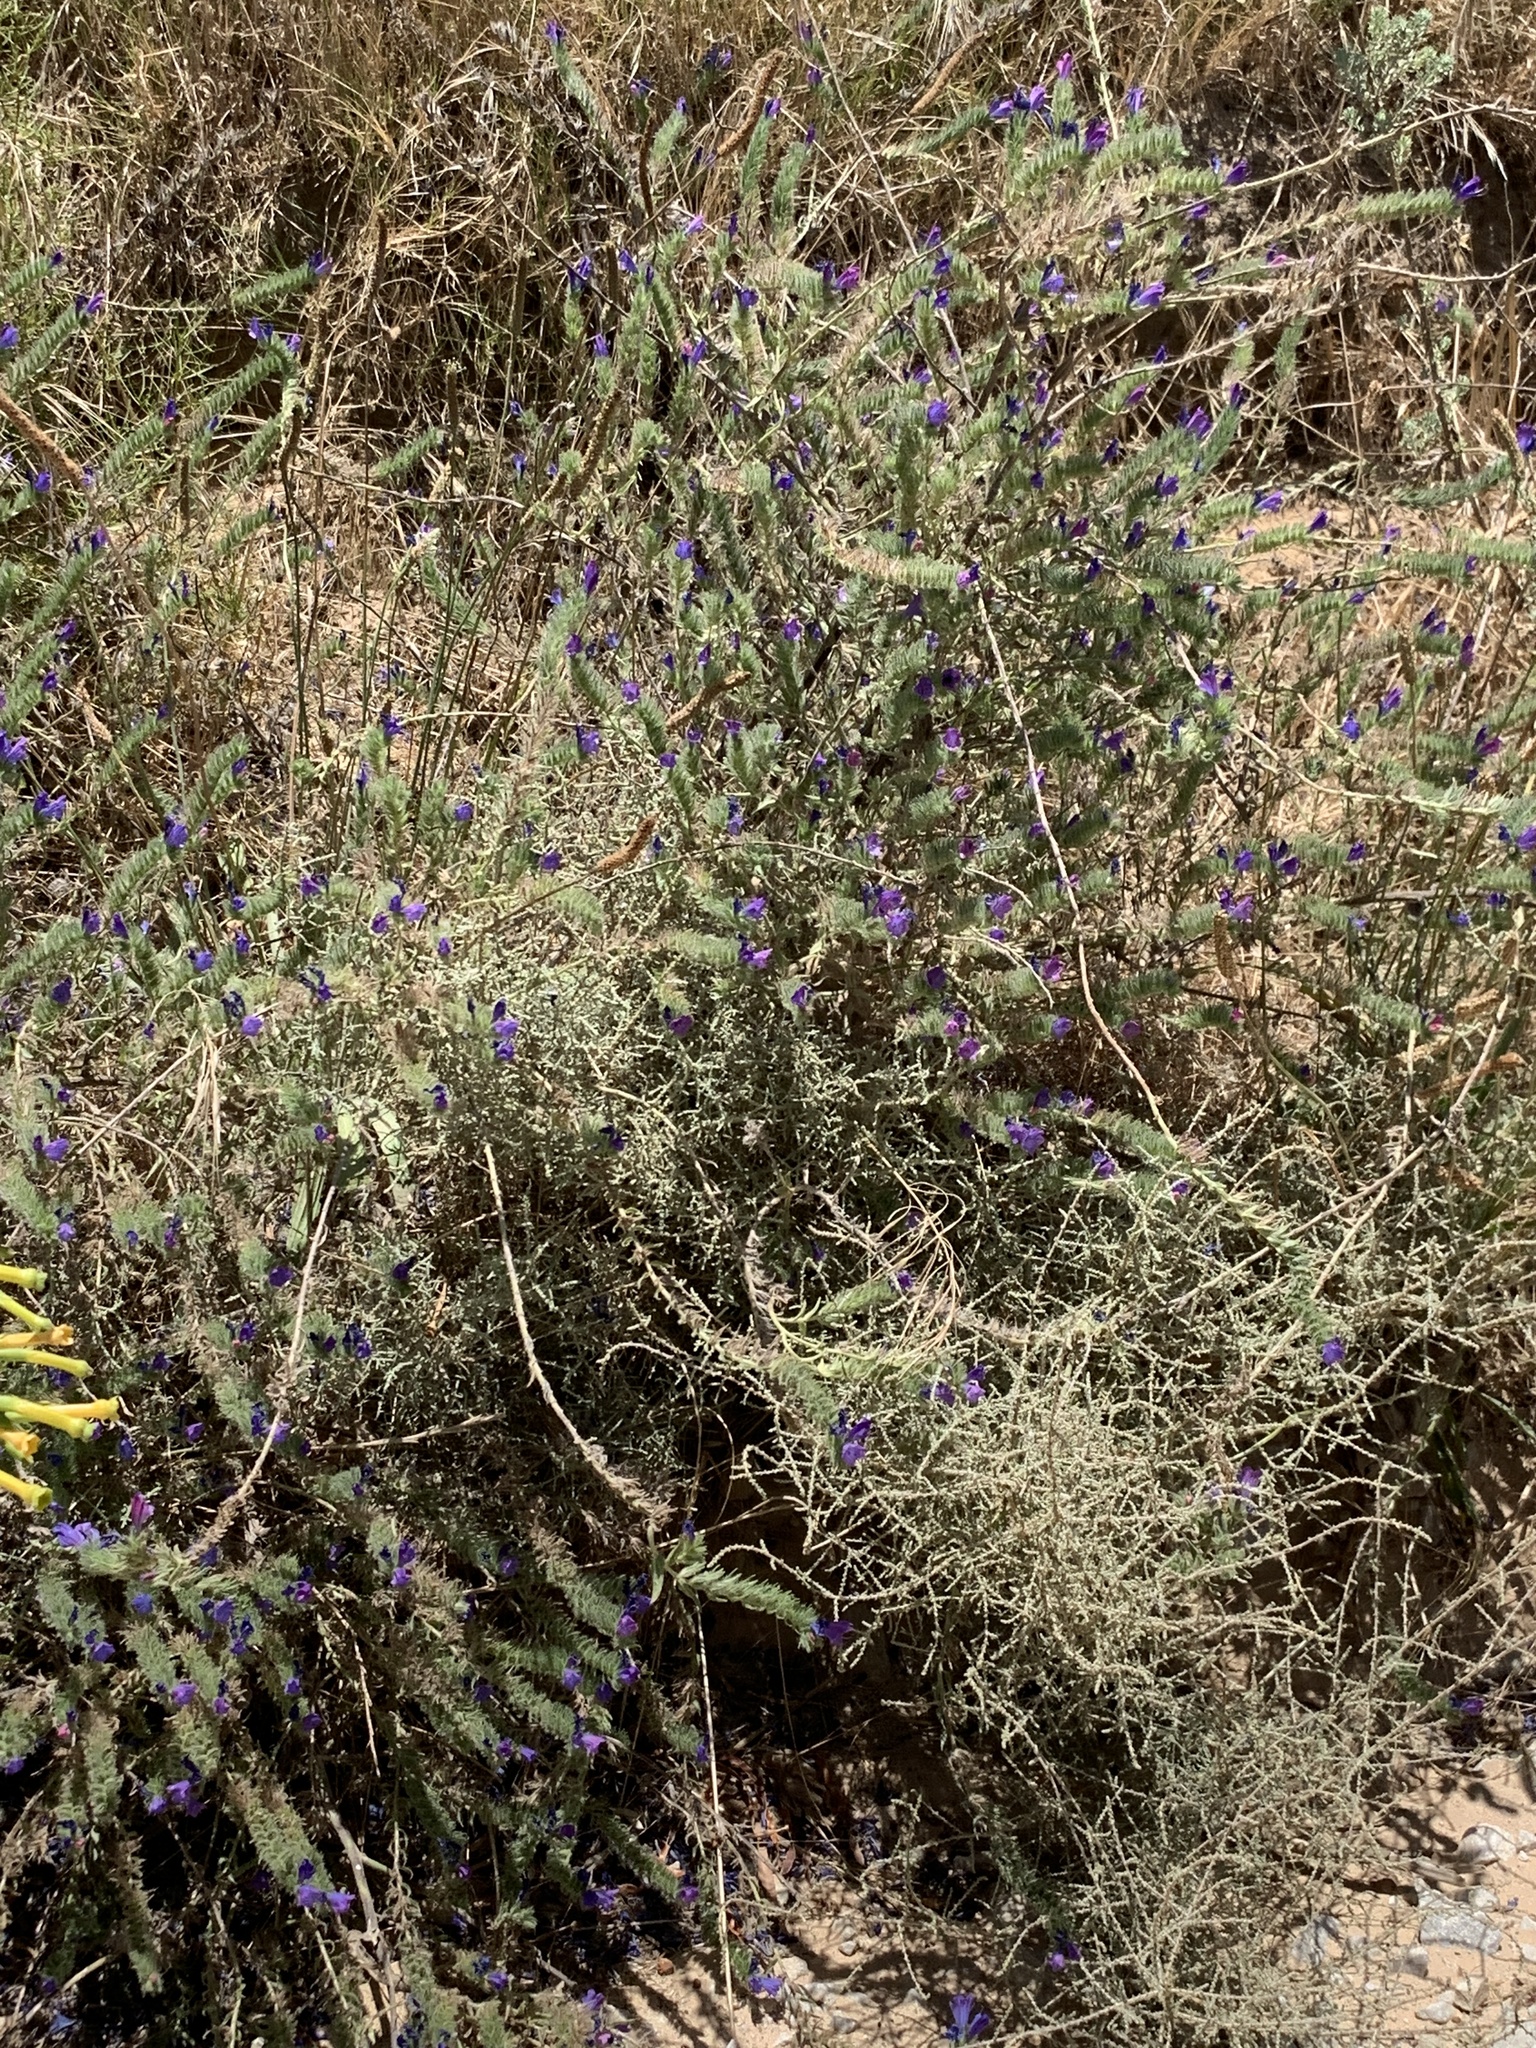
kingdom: Plantae
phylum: Tracheophyta
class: Magnoliopsida
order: Boraginales
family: Boraginaceae
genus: Echium
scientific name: Echium plantagineum
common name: Purple viper's-bugloss
